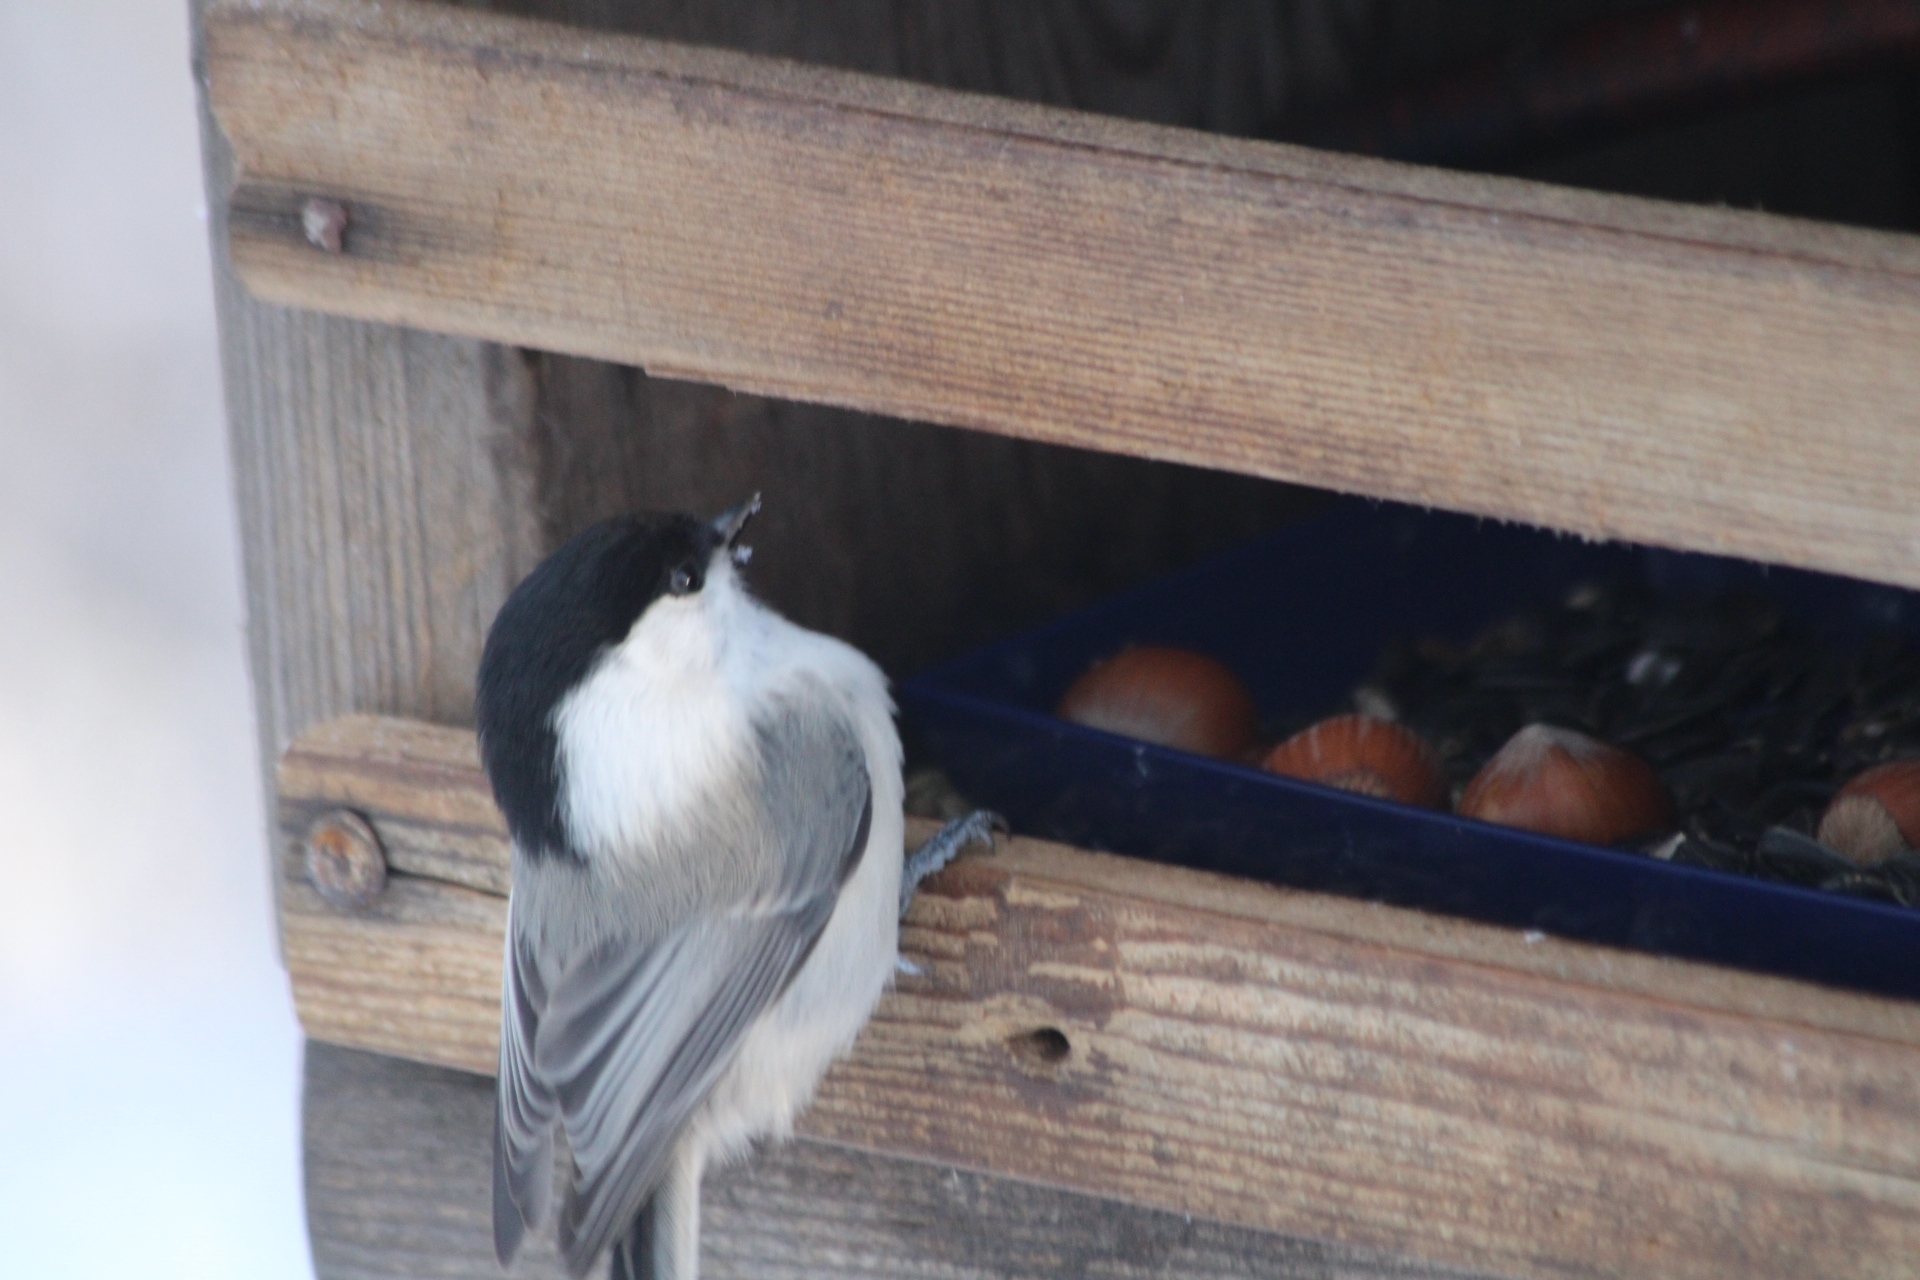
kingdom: Animalia
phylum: Chordata
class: Aves
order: Passeriformes
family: Paridae
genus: Poecile
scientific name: Poecile montanus
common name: Willow tit
